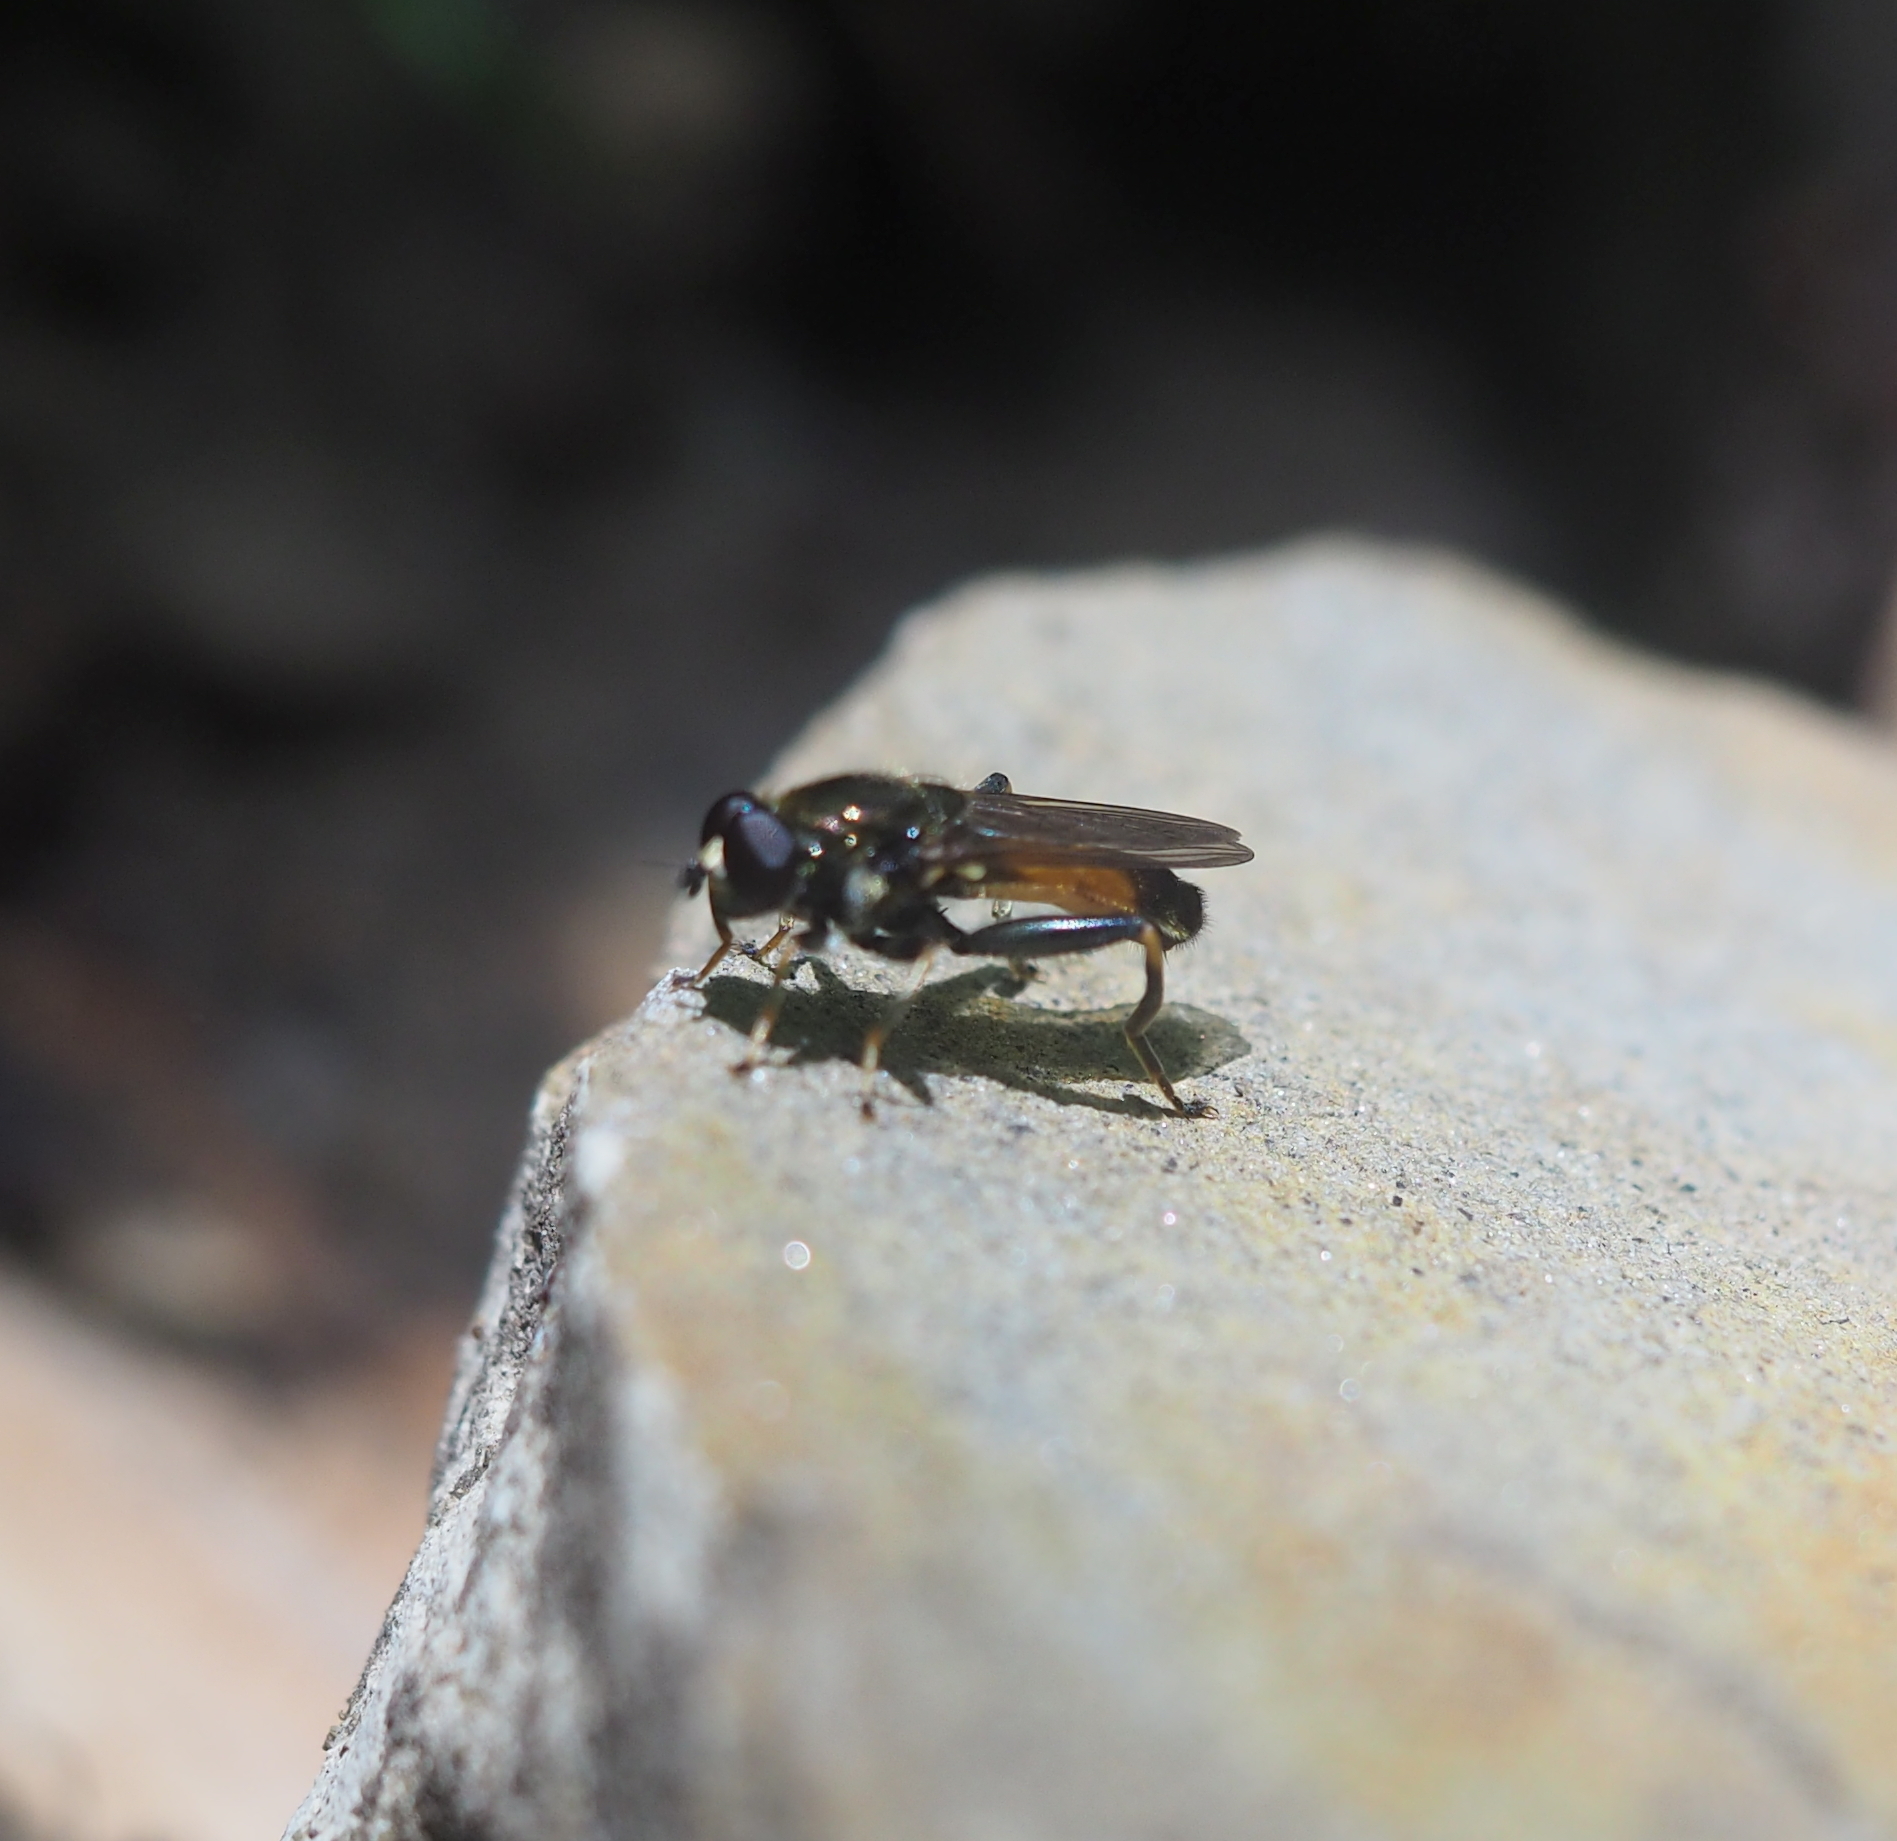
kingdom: Animalia
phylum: Arthropoda
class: Insecta
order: Diptera
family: Syrphidae
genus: Xylota
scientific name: Xylota segnis
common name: Brown-toed forest fly
